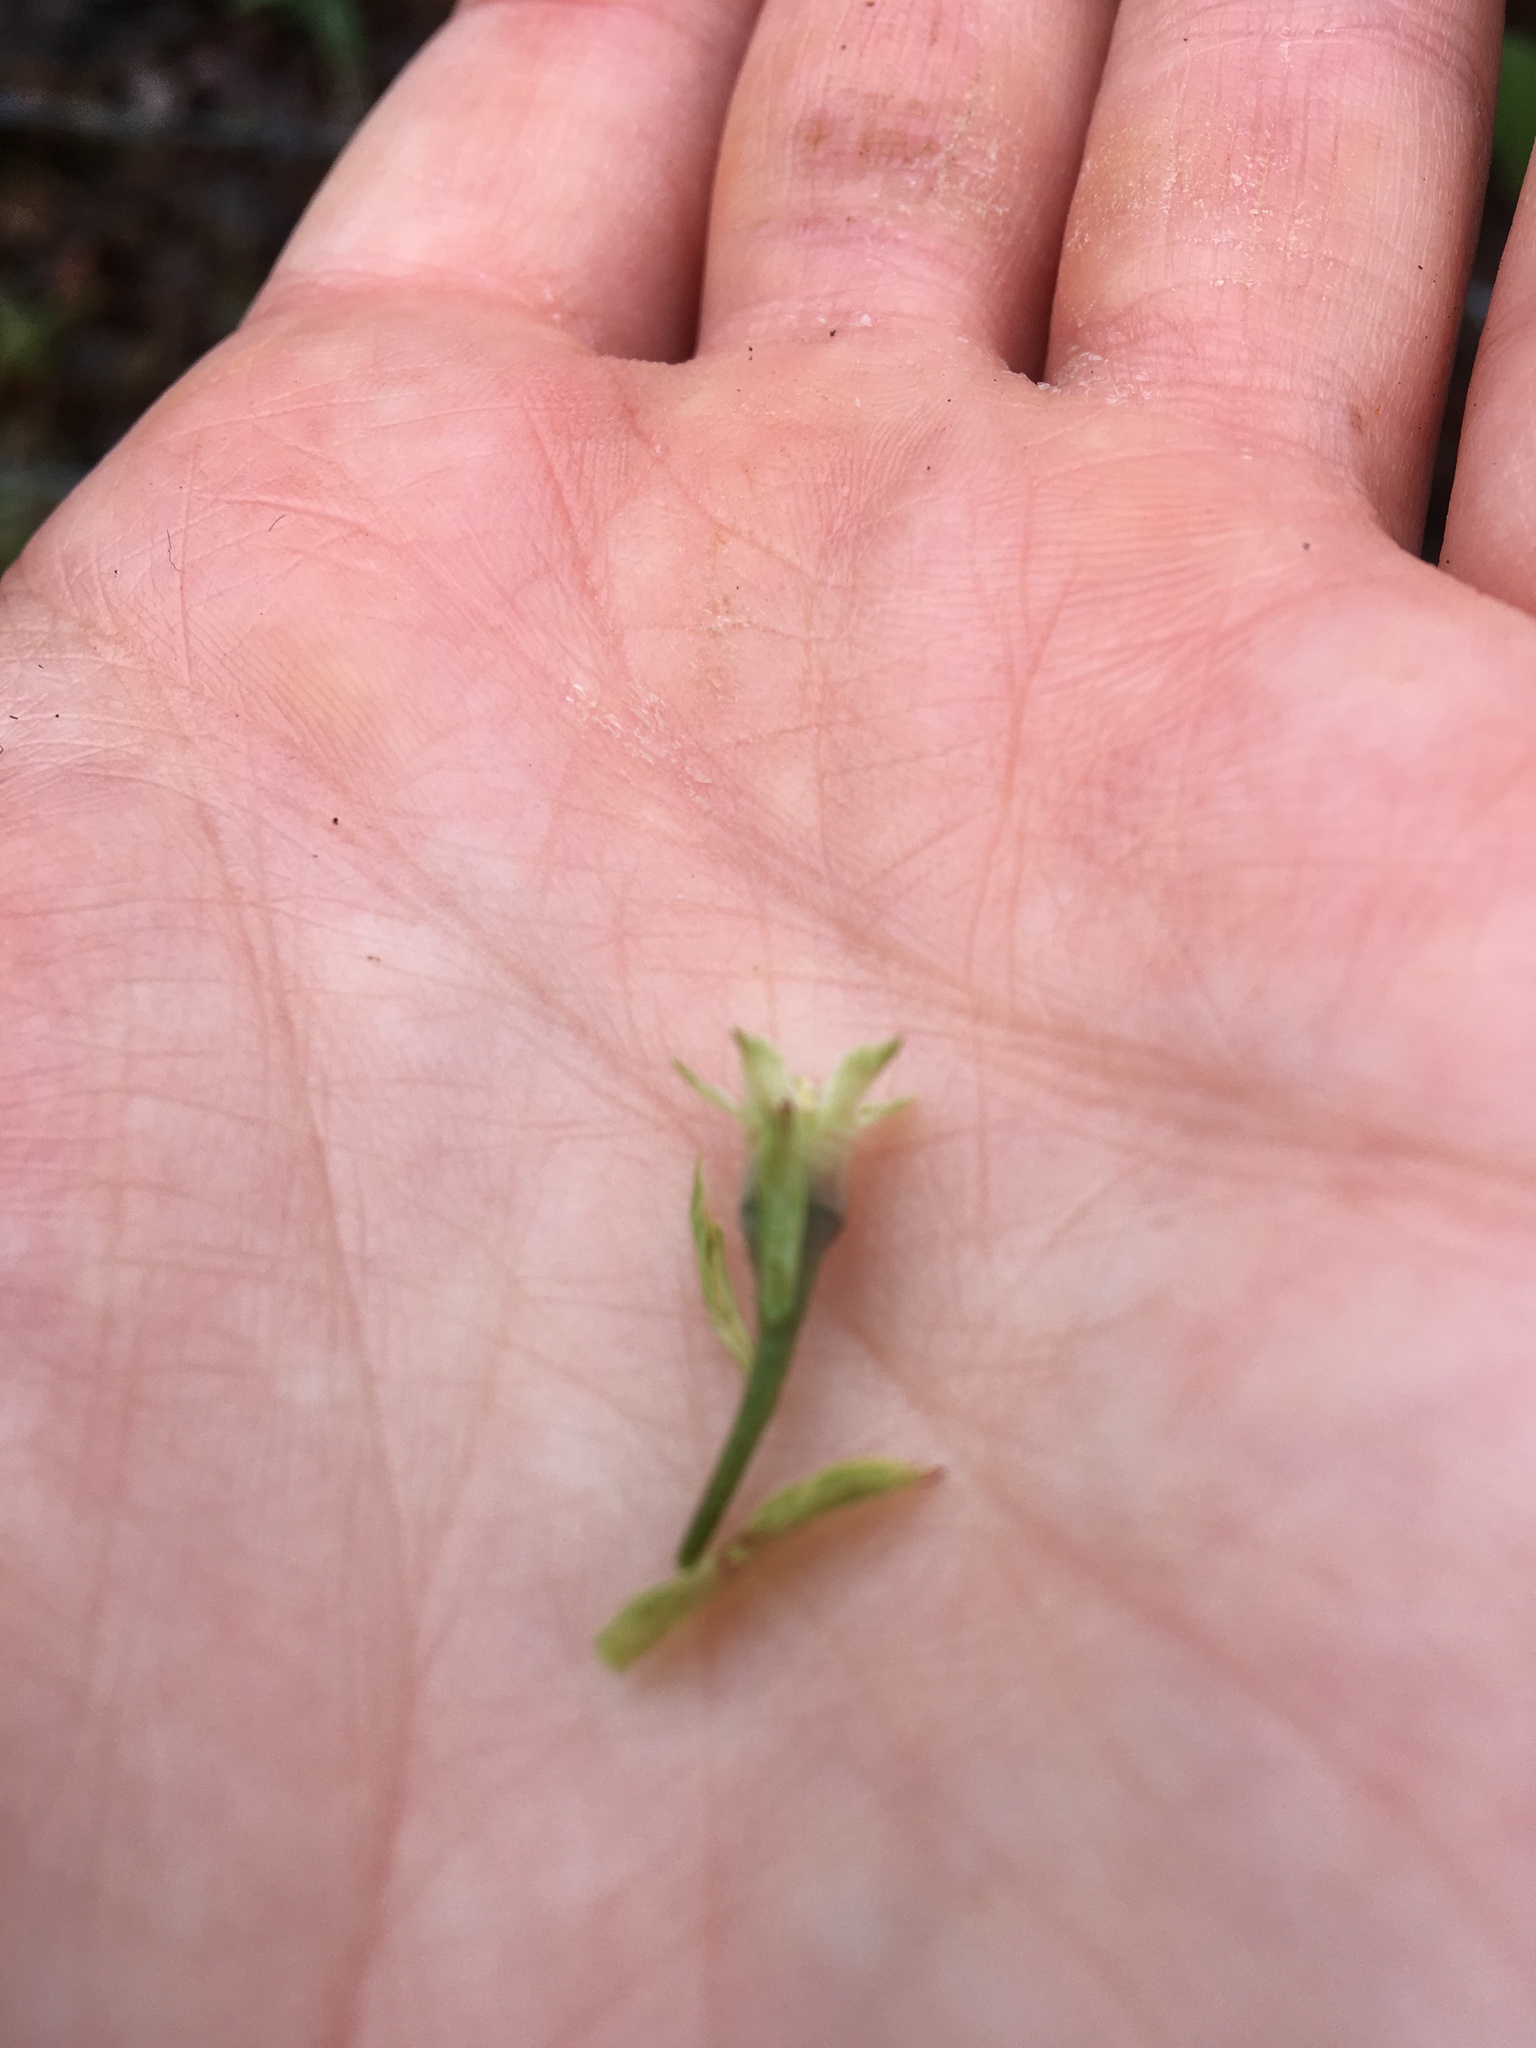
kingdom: Plantae
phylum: Tracheophyta
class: Magnoliopsida
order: Rosales
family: Rosaceae
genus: Oemleria
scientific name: Oemleria cerasiformis
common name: Osoberry
